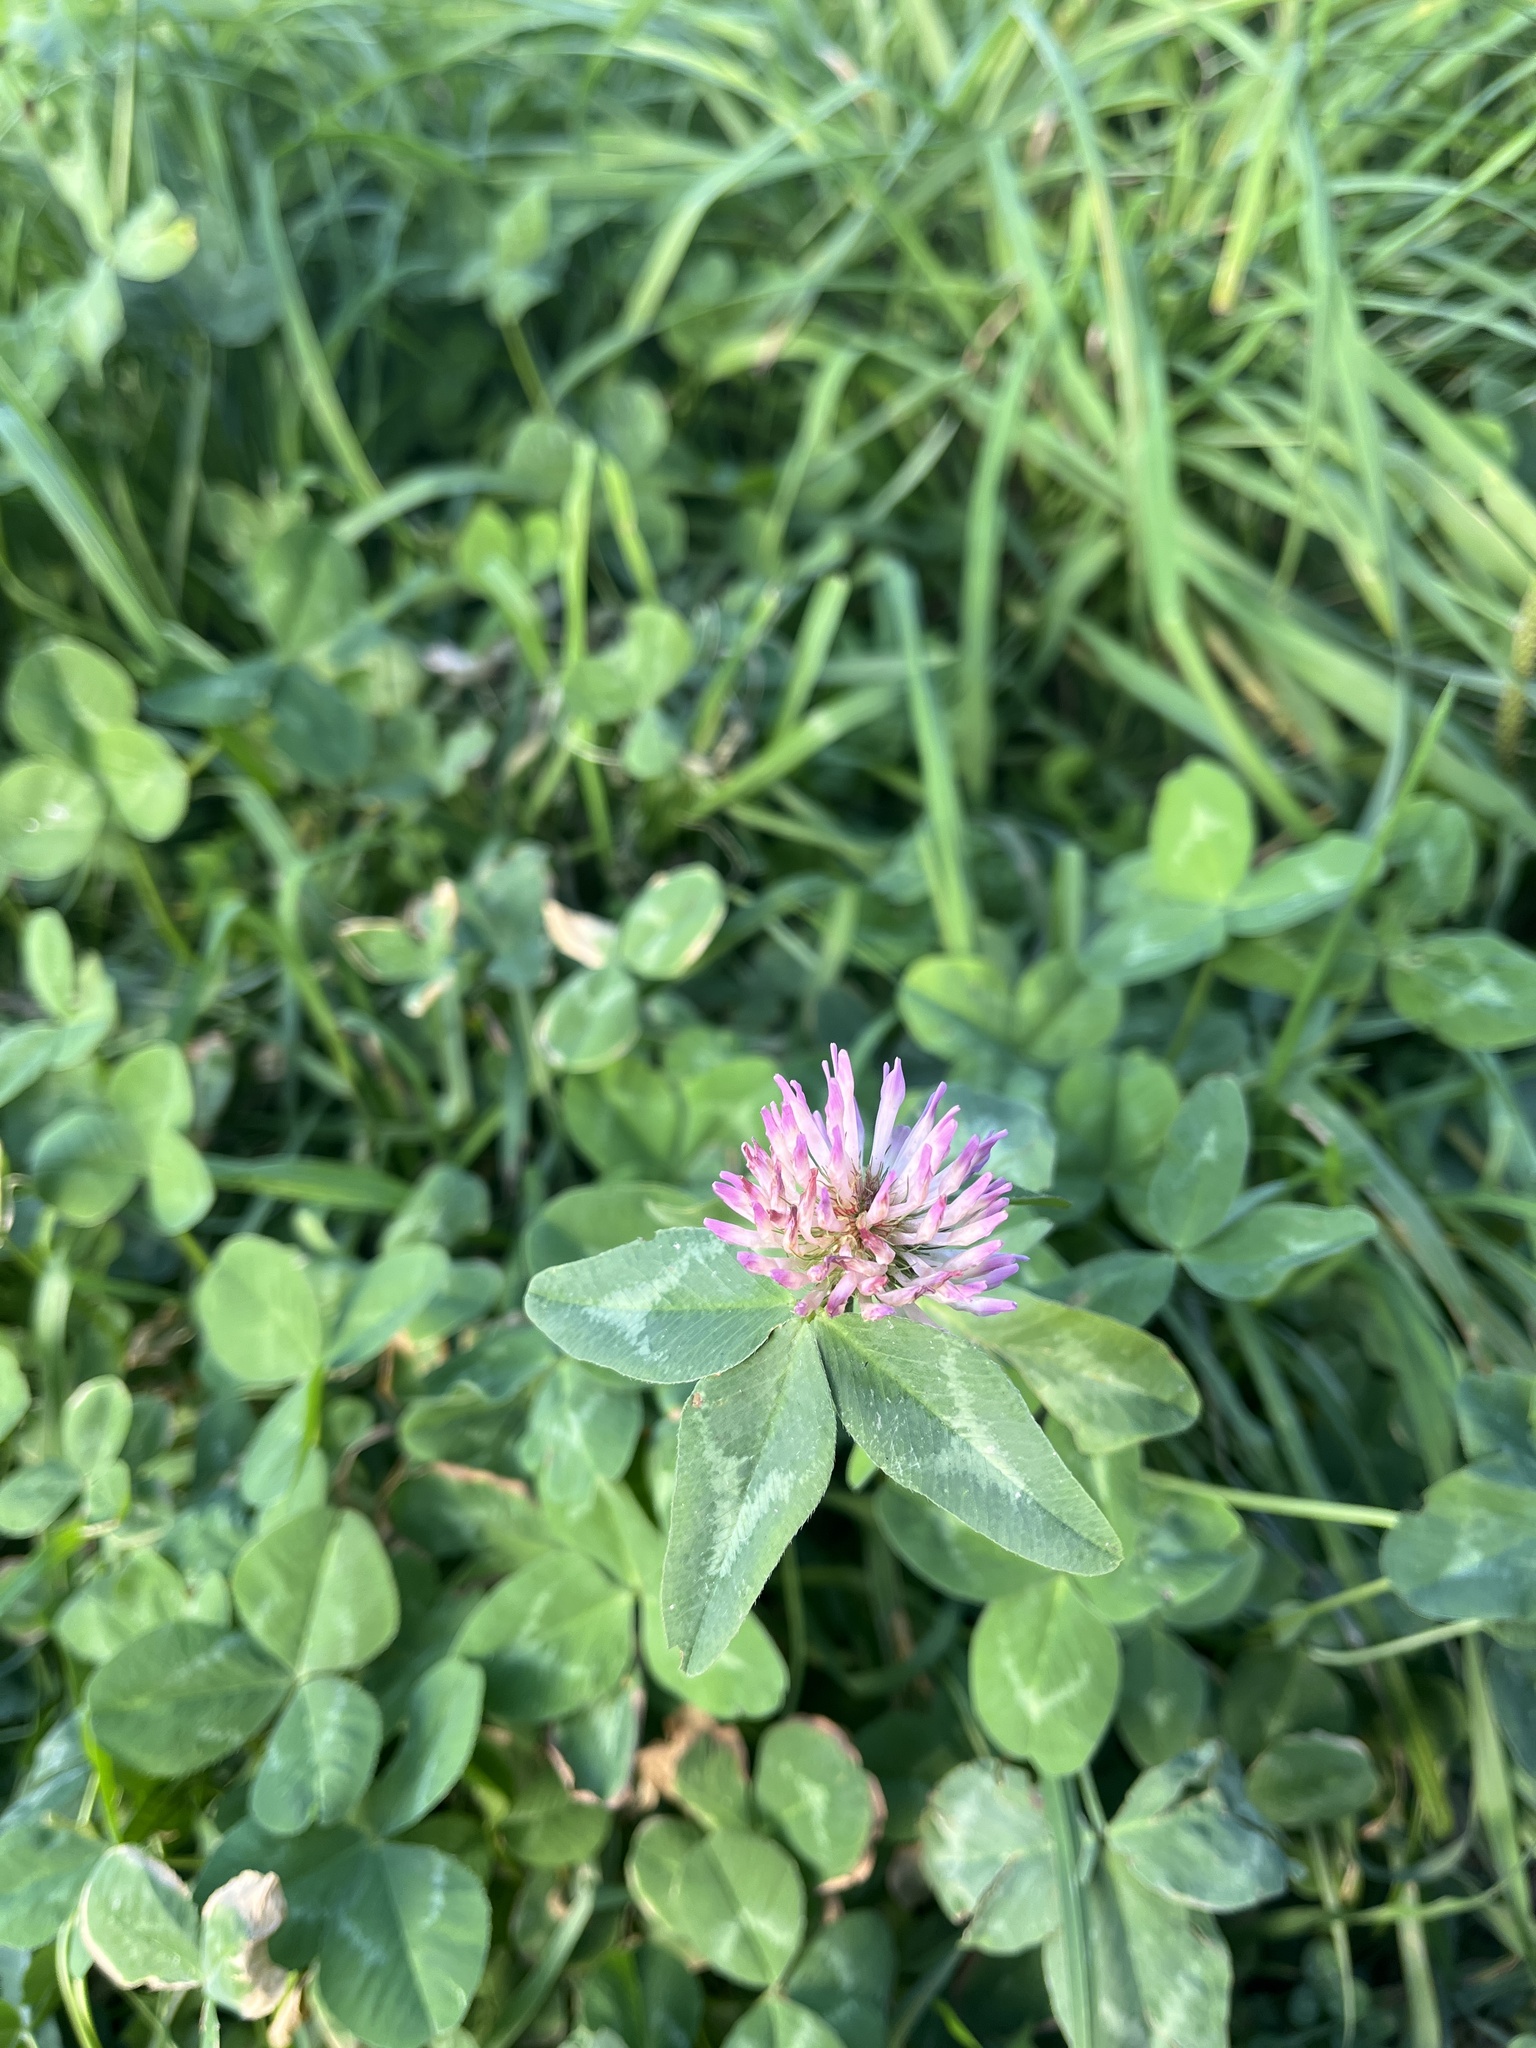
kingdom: Plantae
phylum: Tracheophyta
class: Magnoliopsida
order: Fabales
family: Fabaceae
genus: Trifolium
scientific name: Trifolium pratense
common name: Red clover
